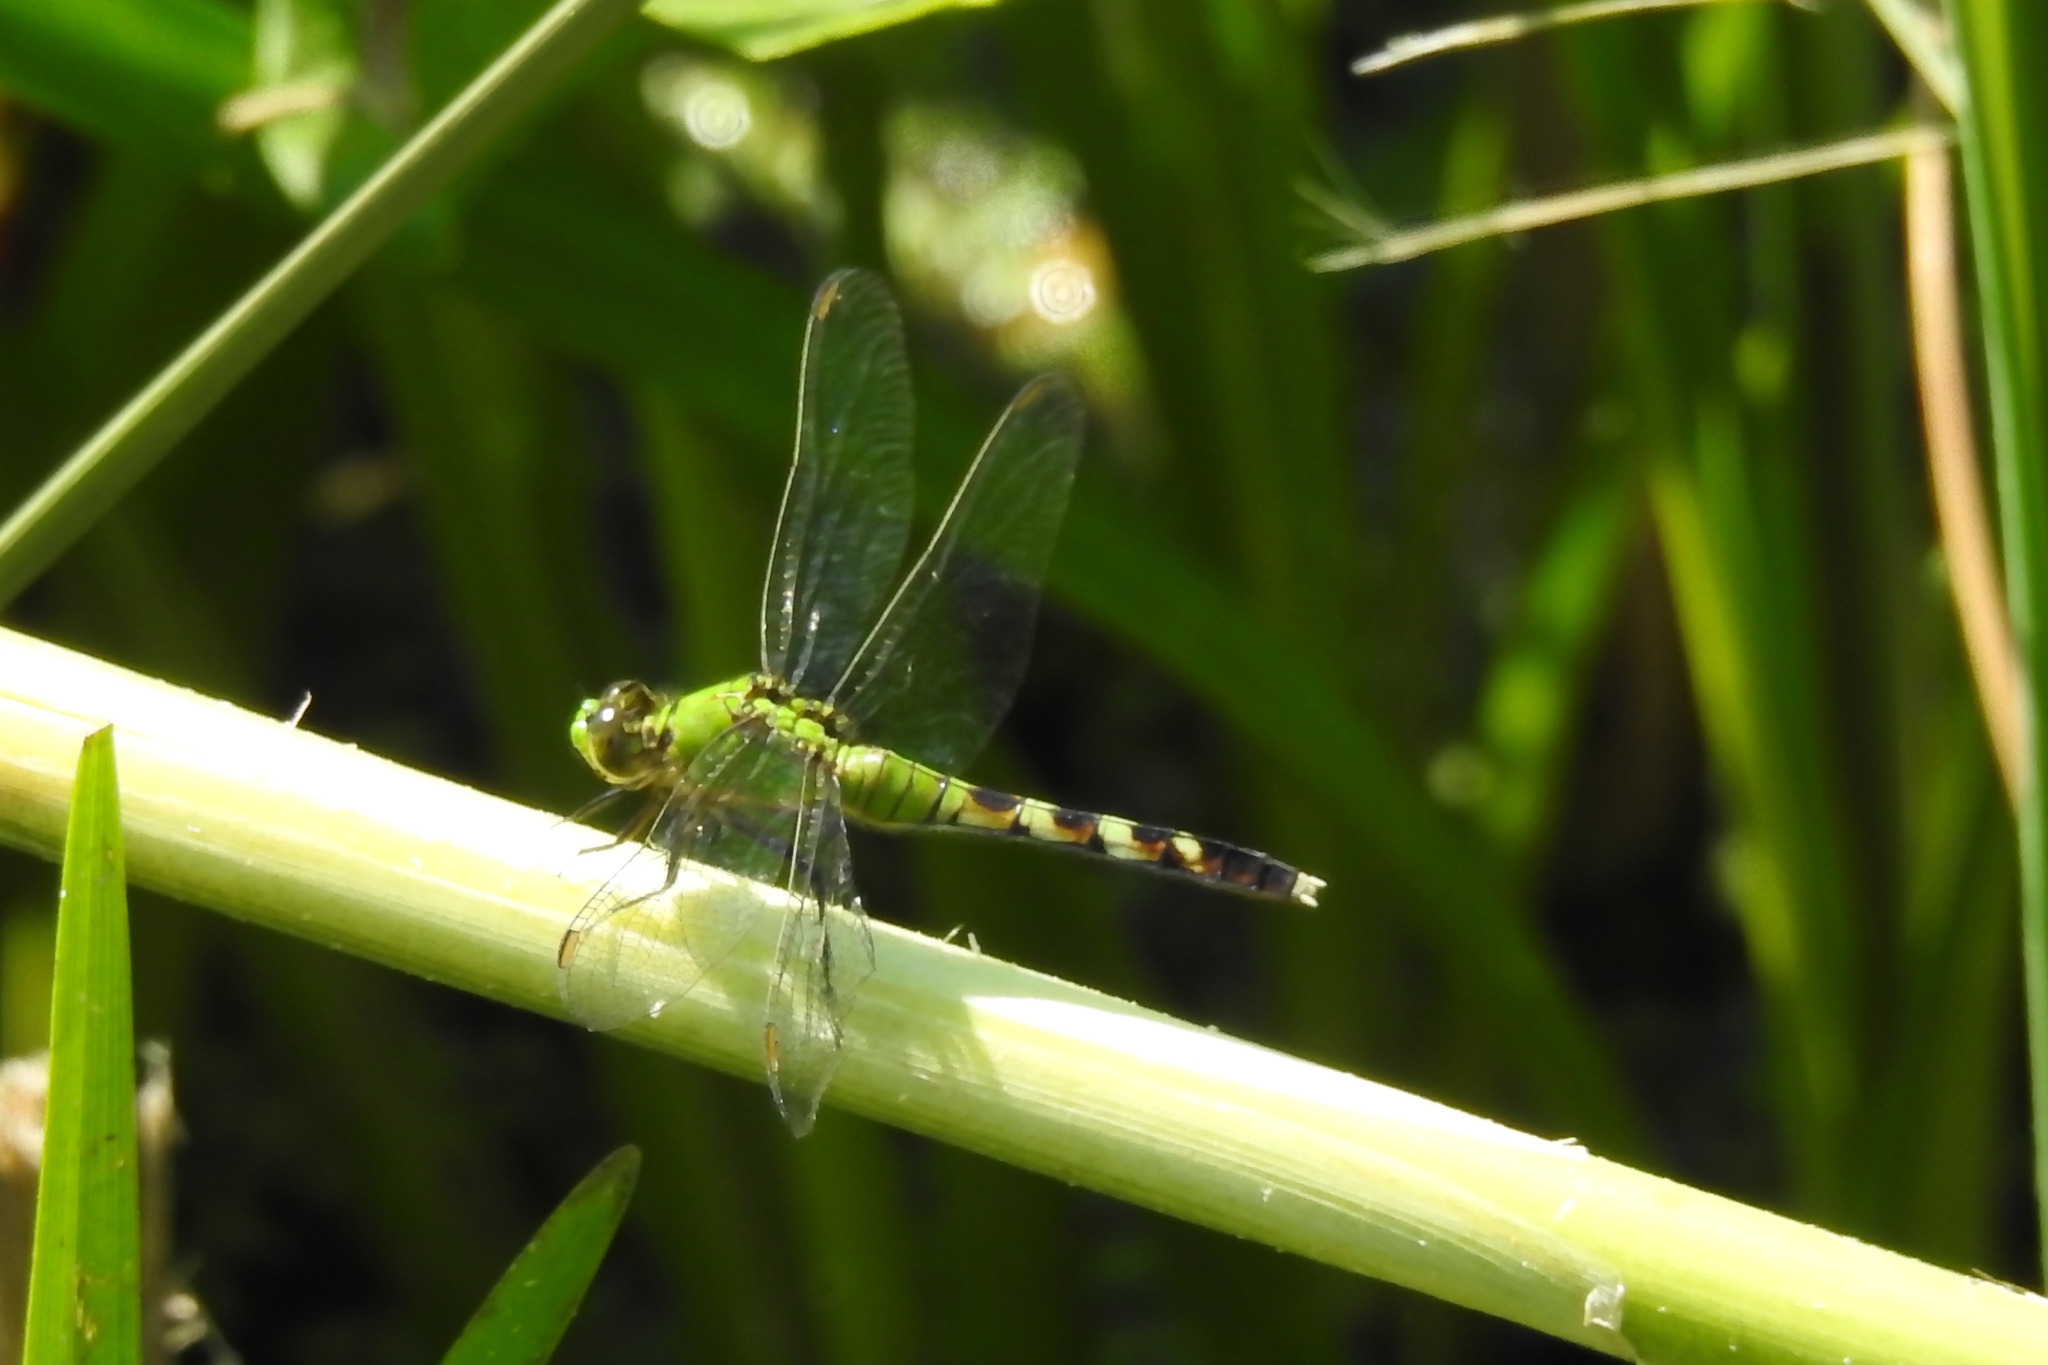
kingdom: Animalia
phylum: Arthropoda
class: Insecta
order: Odonata
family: Libellulidae
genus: Erythemis
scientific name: Erythemis simplicicollis
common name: Eastern pondhawk
